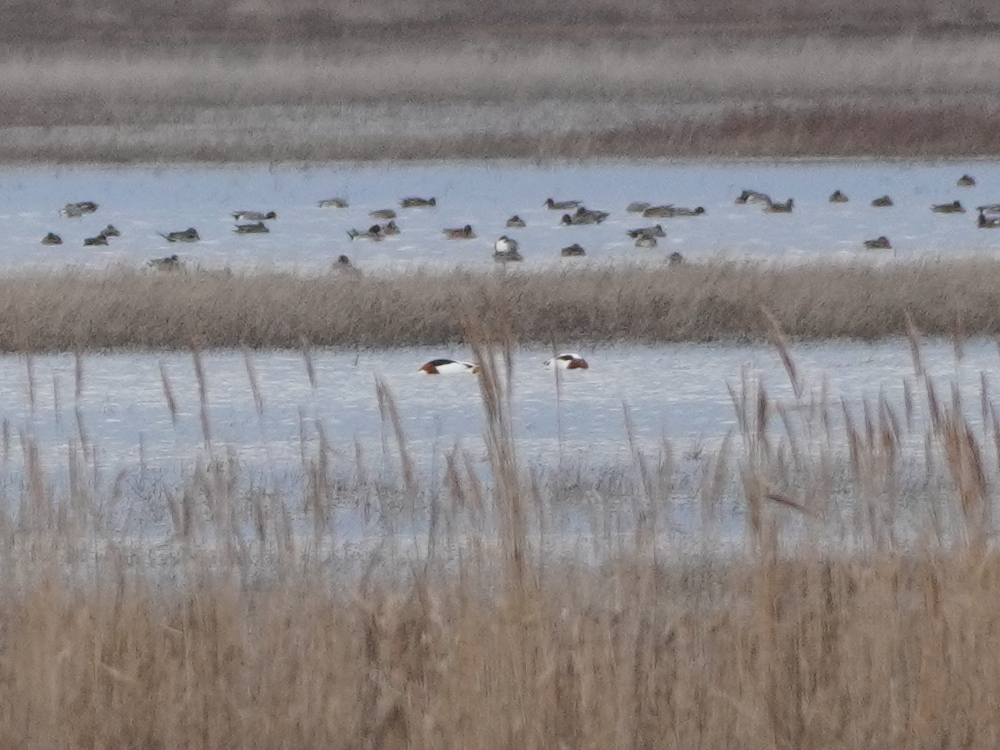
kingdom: Animalia
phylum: Chordata
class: Aves
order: Anseriformes
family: Anatidae
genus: Tadorna
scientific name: Tadorna tadorna
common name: Common shelduck
